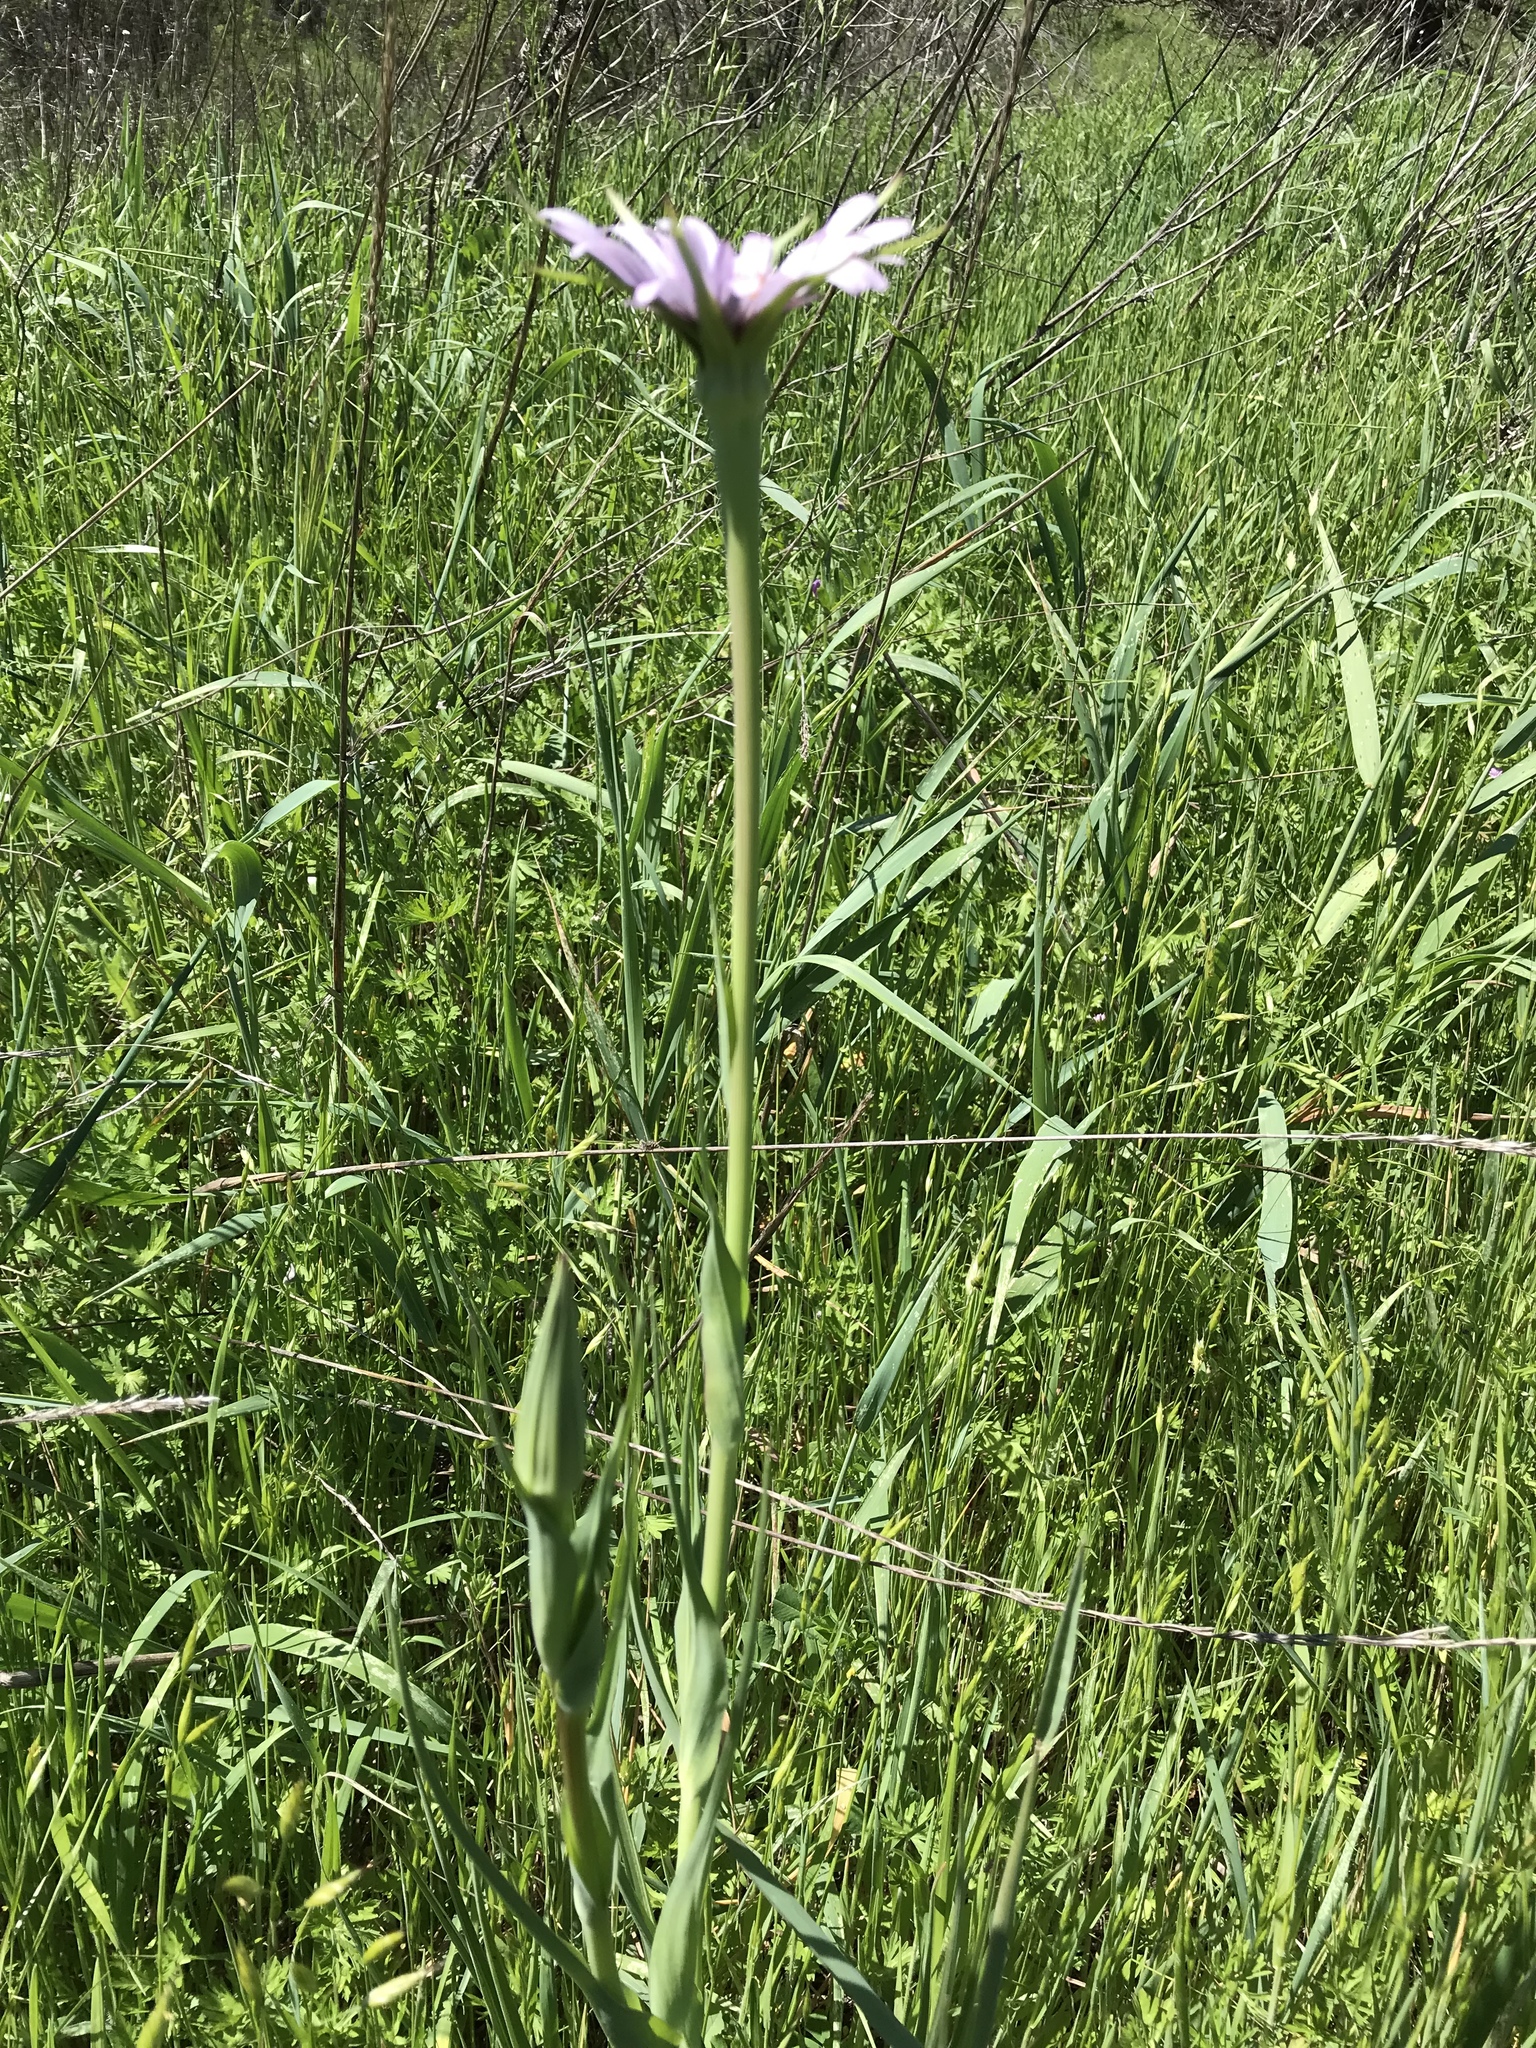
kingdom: Plantae
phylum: Tracheophyta
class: Magnoliopsida
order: Asterales
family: Asteraceae
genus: Tragopogon
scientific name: Tragopogon porrifolius
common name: Salsify
